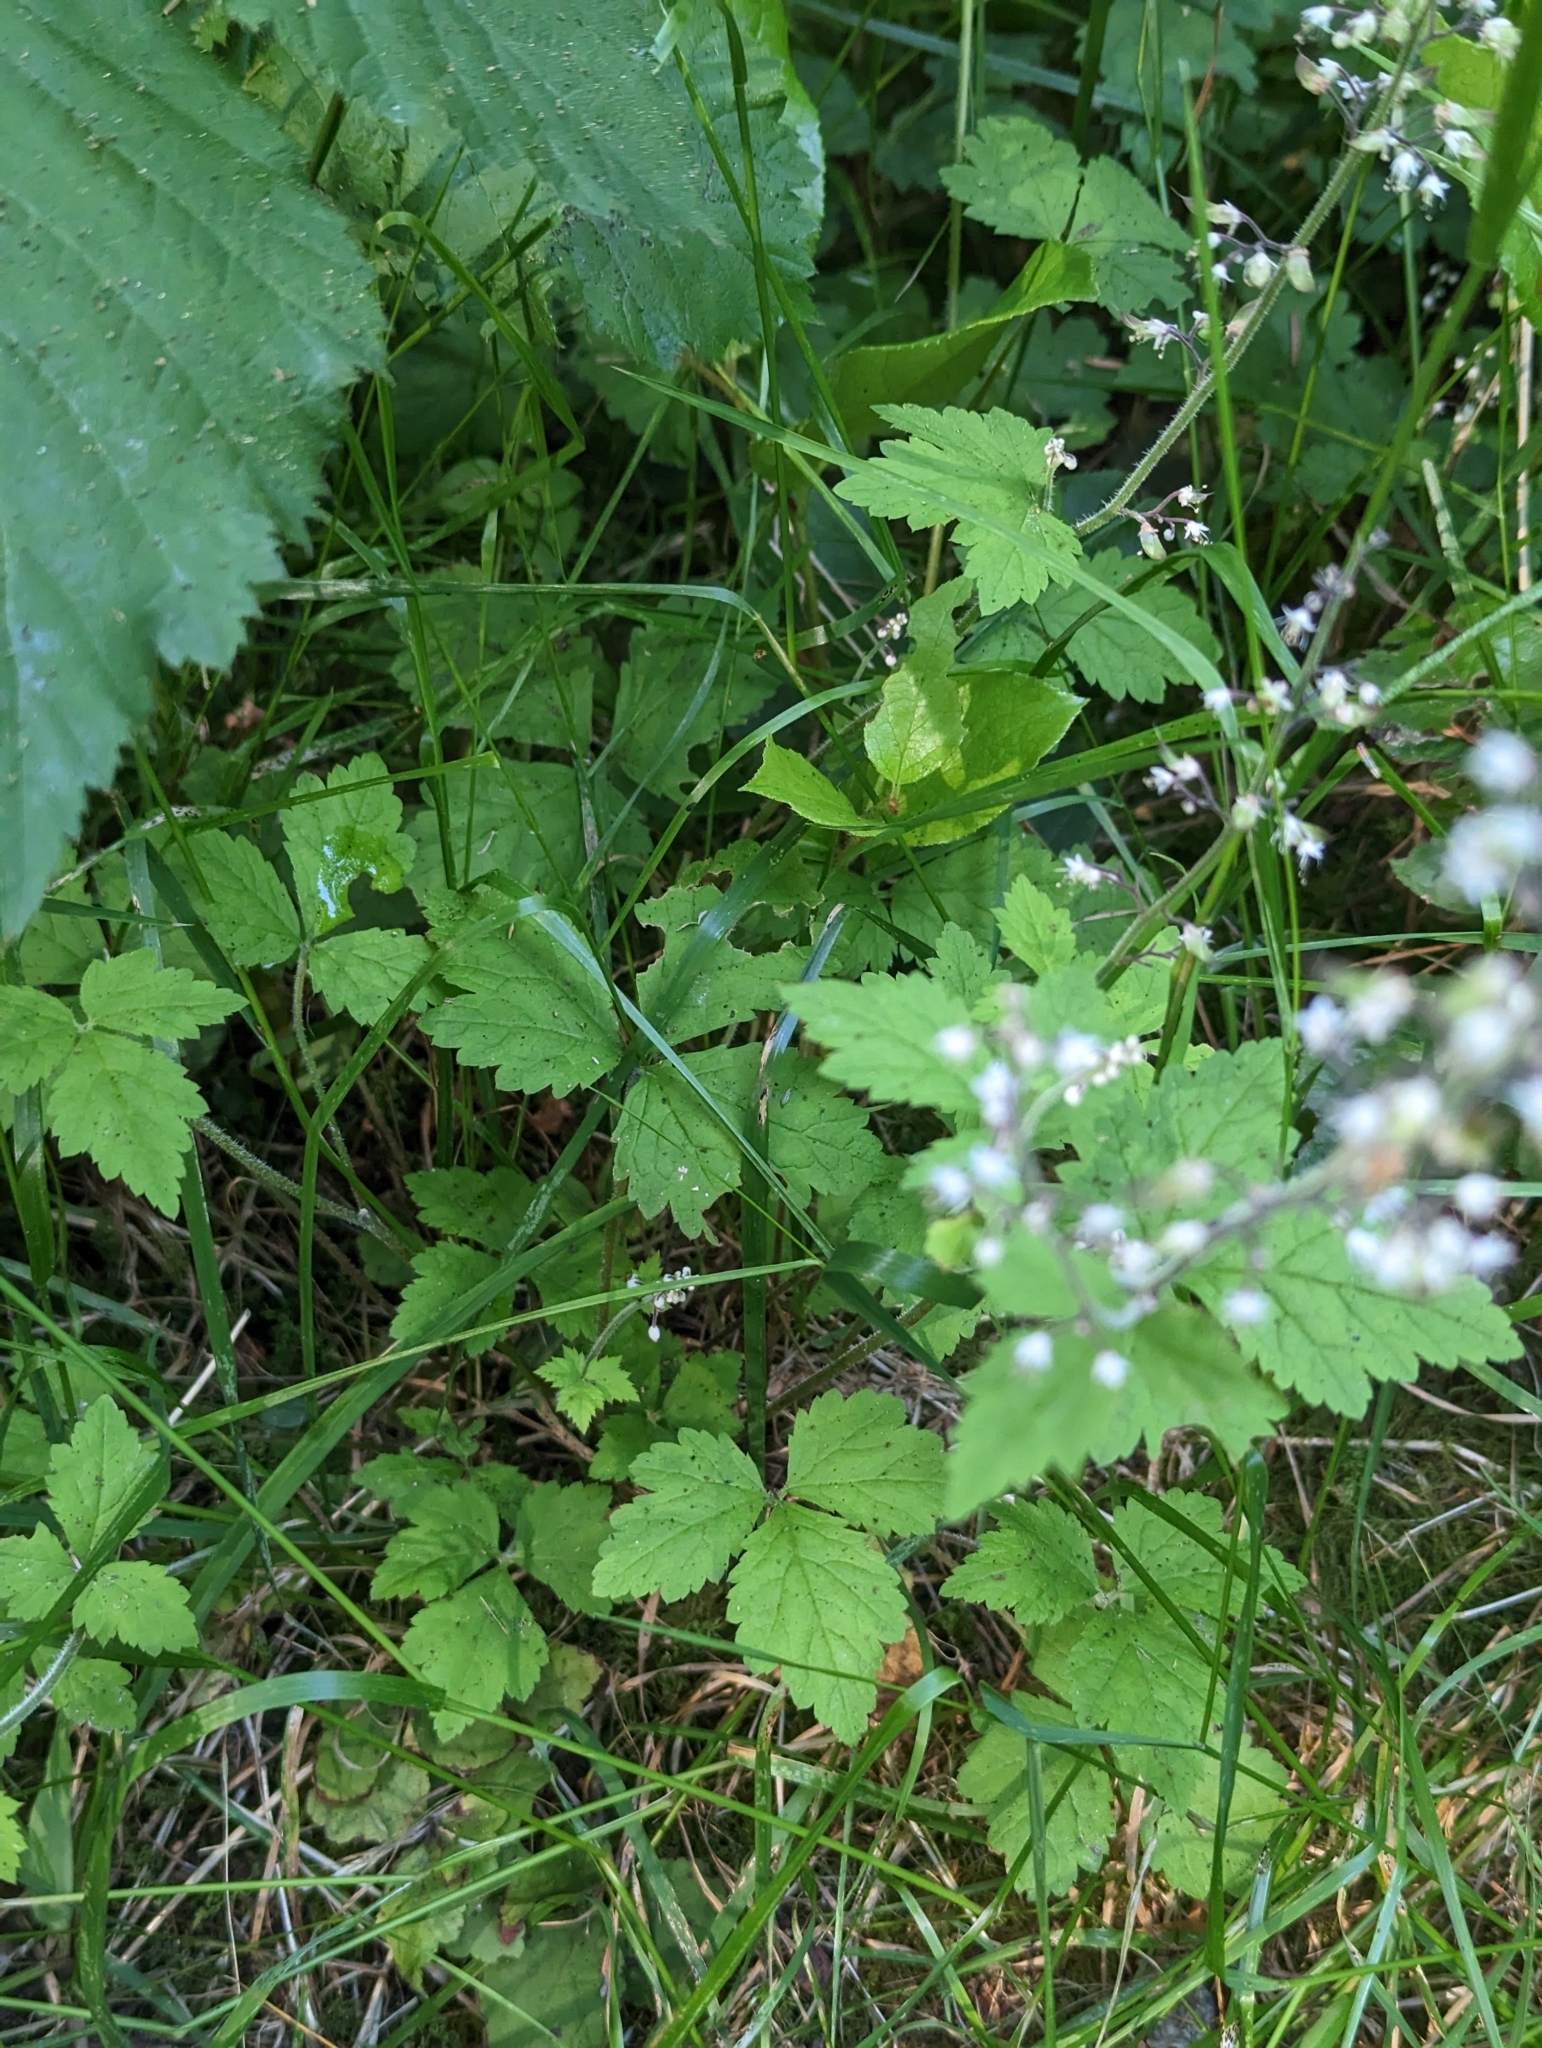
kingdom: Plantae
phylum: Tracheophyta
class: Magnoliopsida
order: Saxifragales
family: Saxifragaceae
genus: Tiarella
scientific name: Tiarella trifoliata
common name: Sugar-scoop
